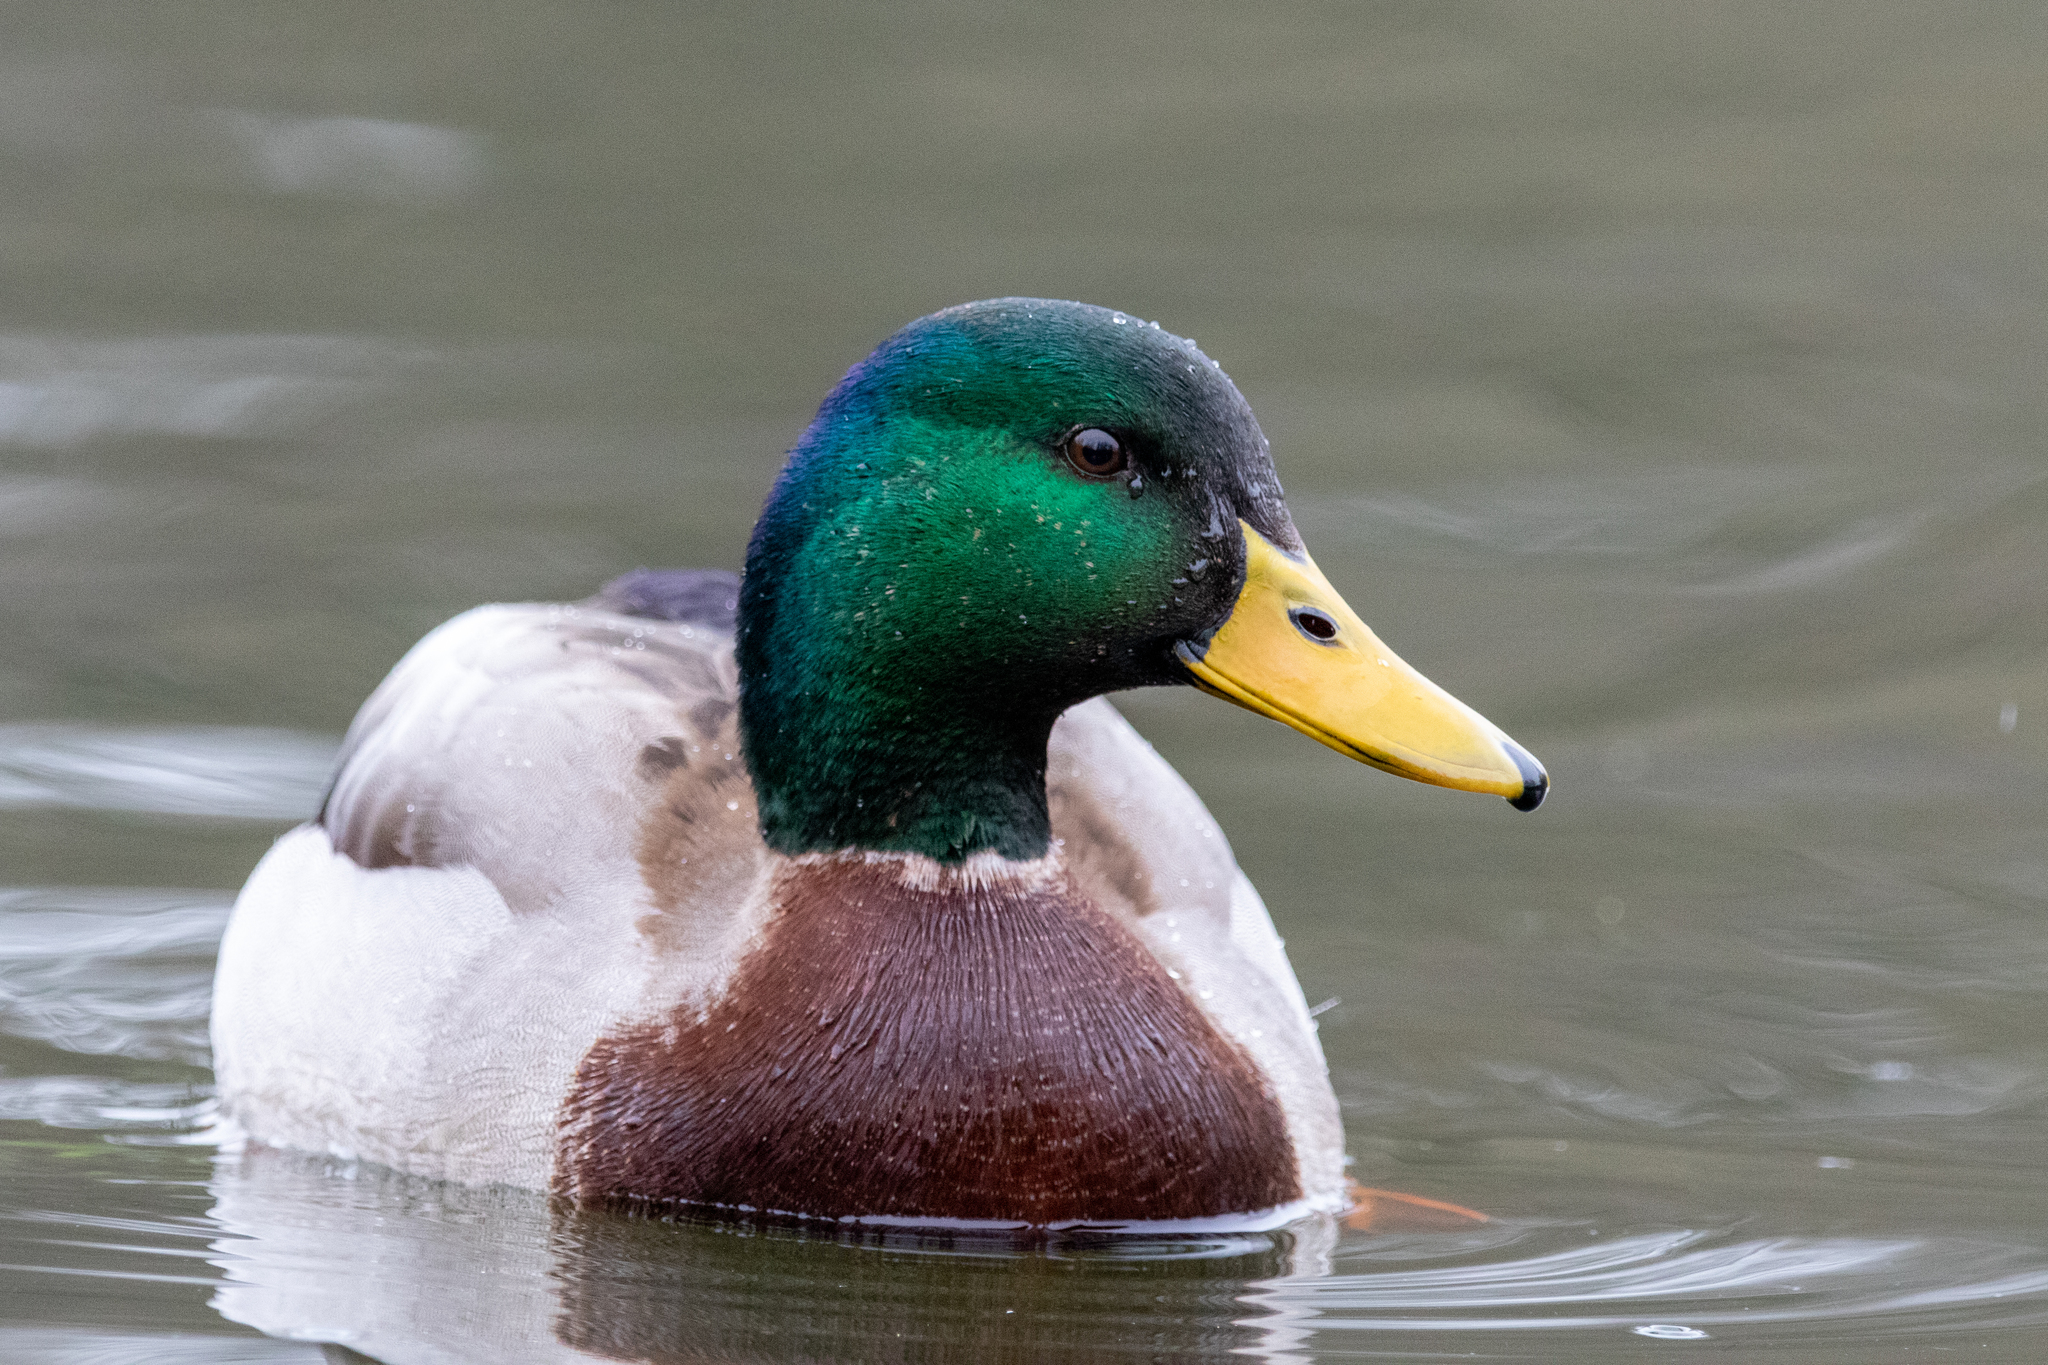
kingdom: Animalia
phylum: Chordata
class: Aves
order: Anseriformes
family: Anatidae
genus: Anas
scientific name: Anas platyrhynchos
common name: Mallard
